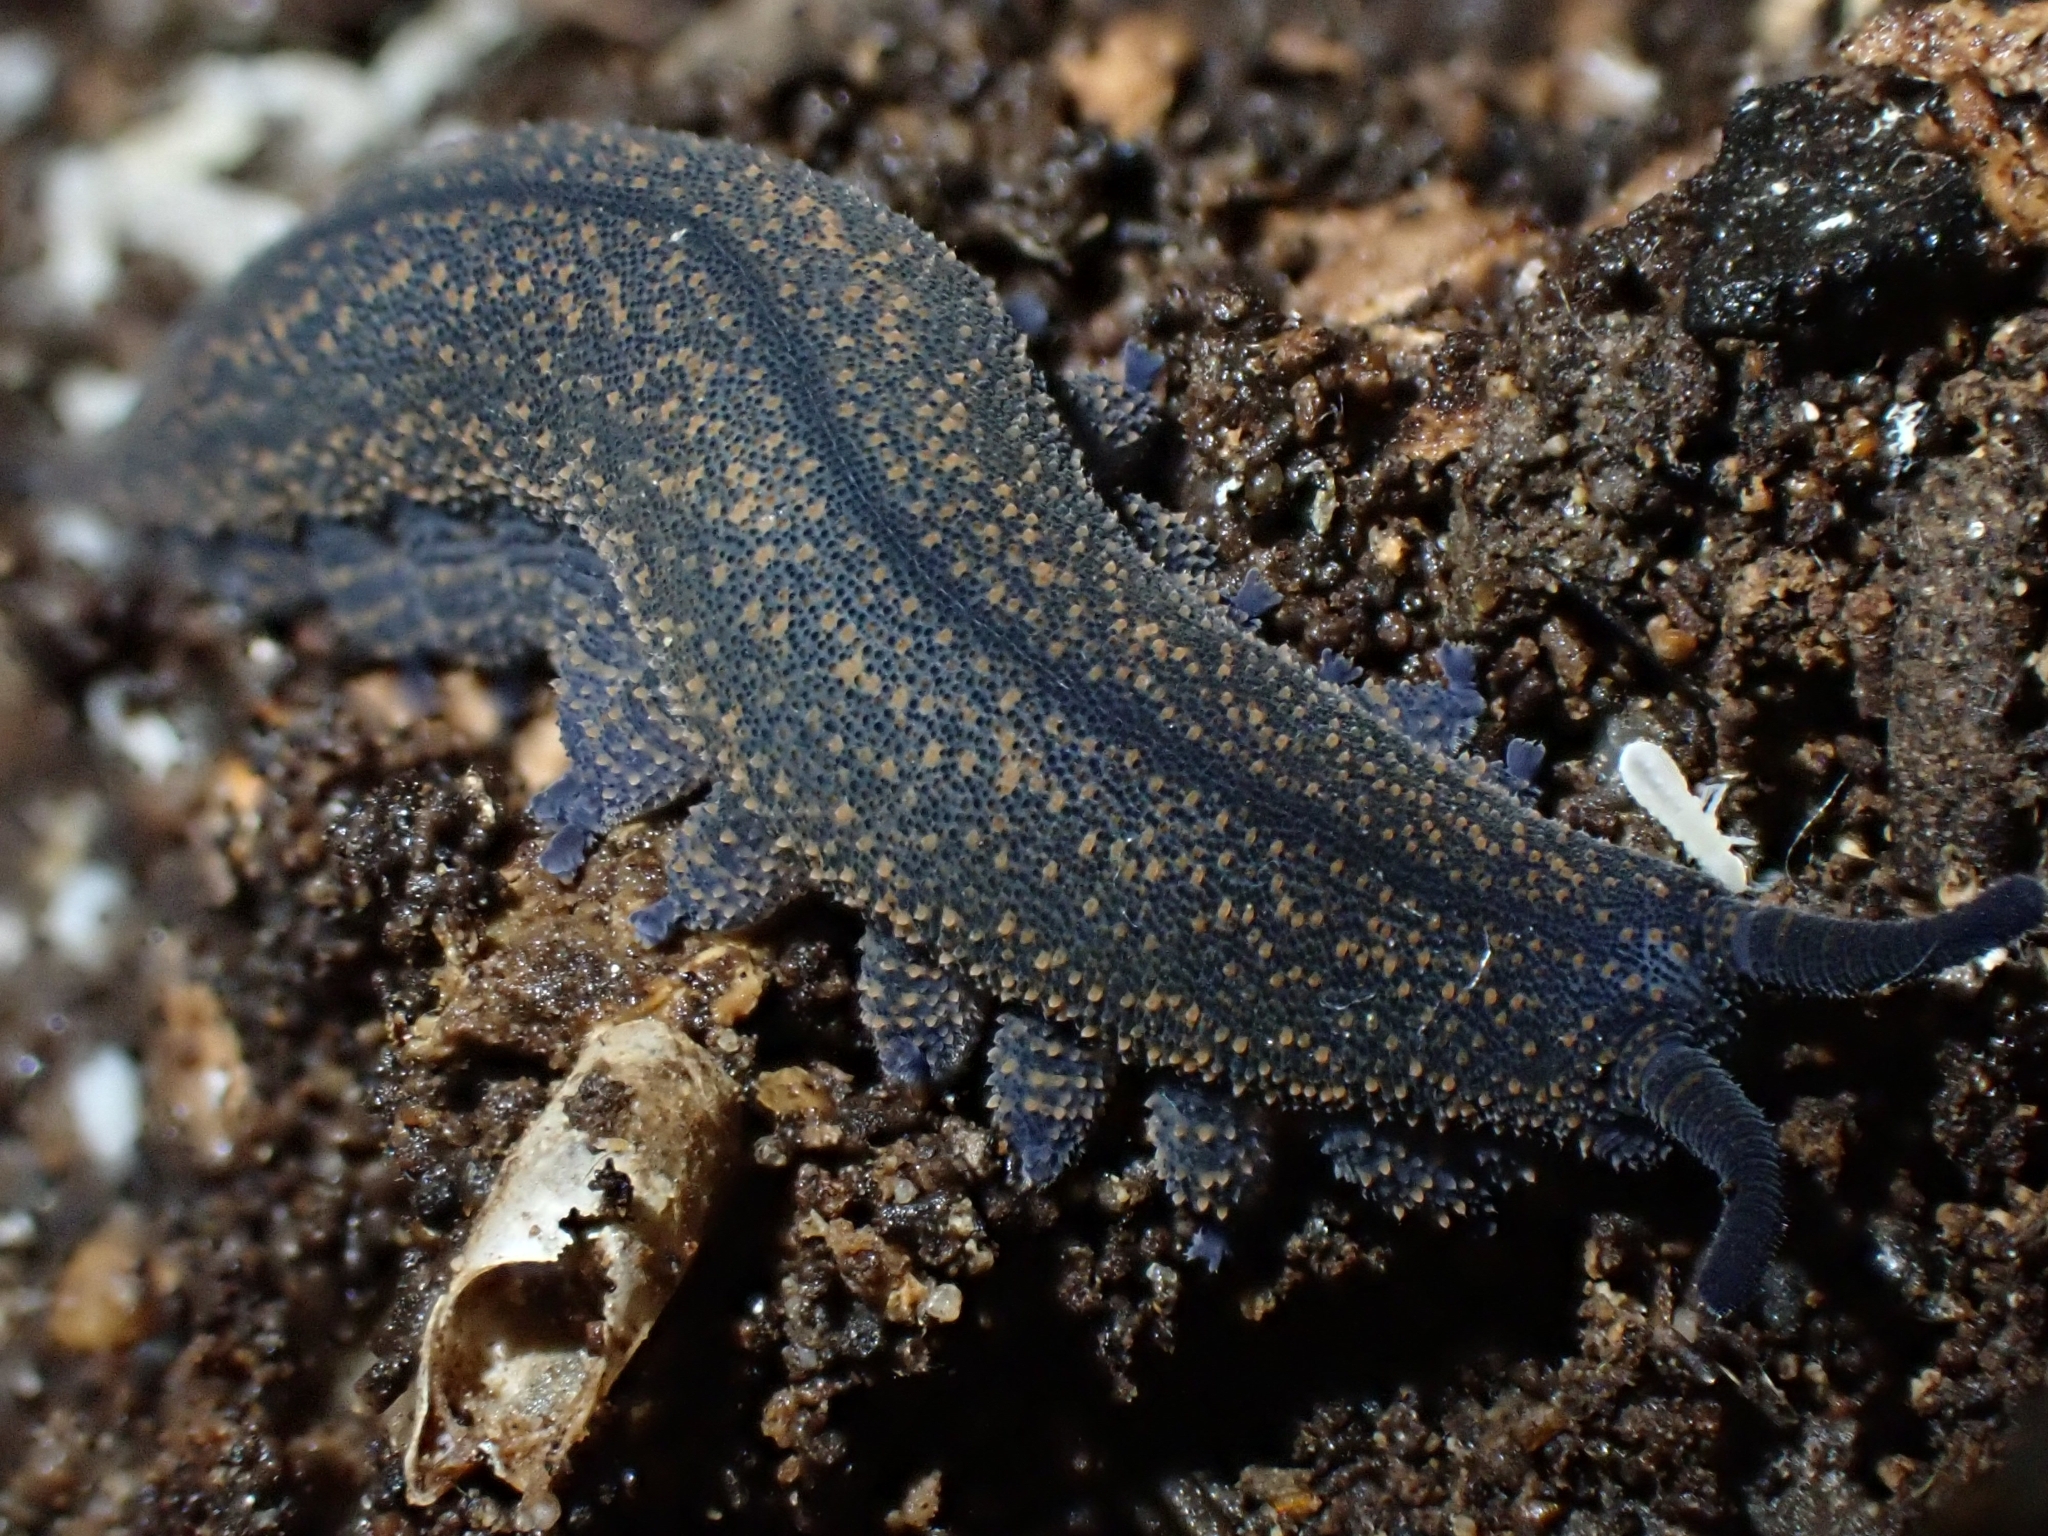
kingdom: Animalia
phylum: Onychophora
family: Peripatopsidae
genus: Peripatoides
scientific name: Peripatoides novaezealandiae
